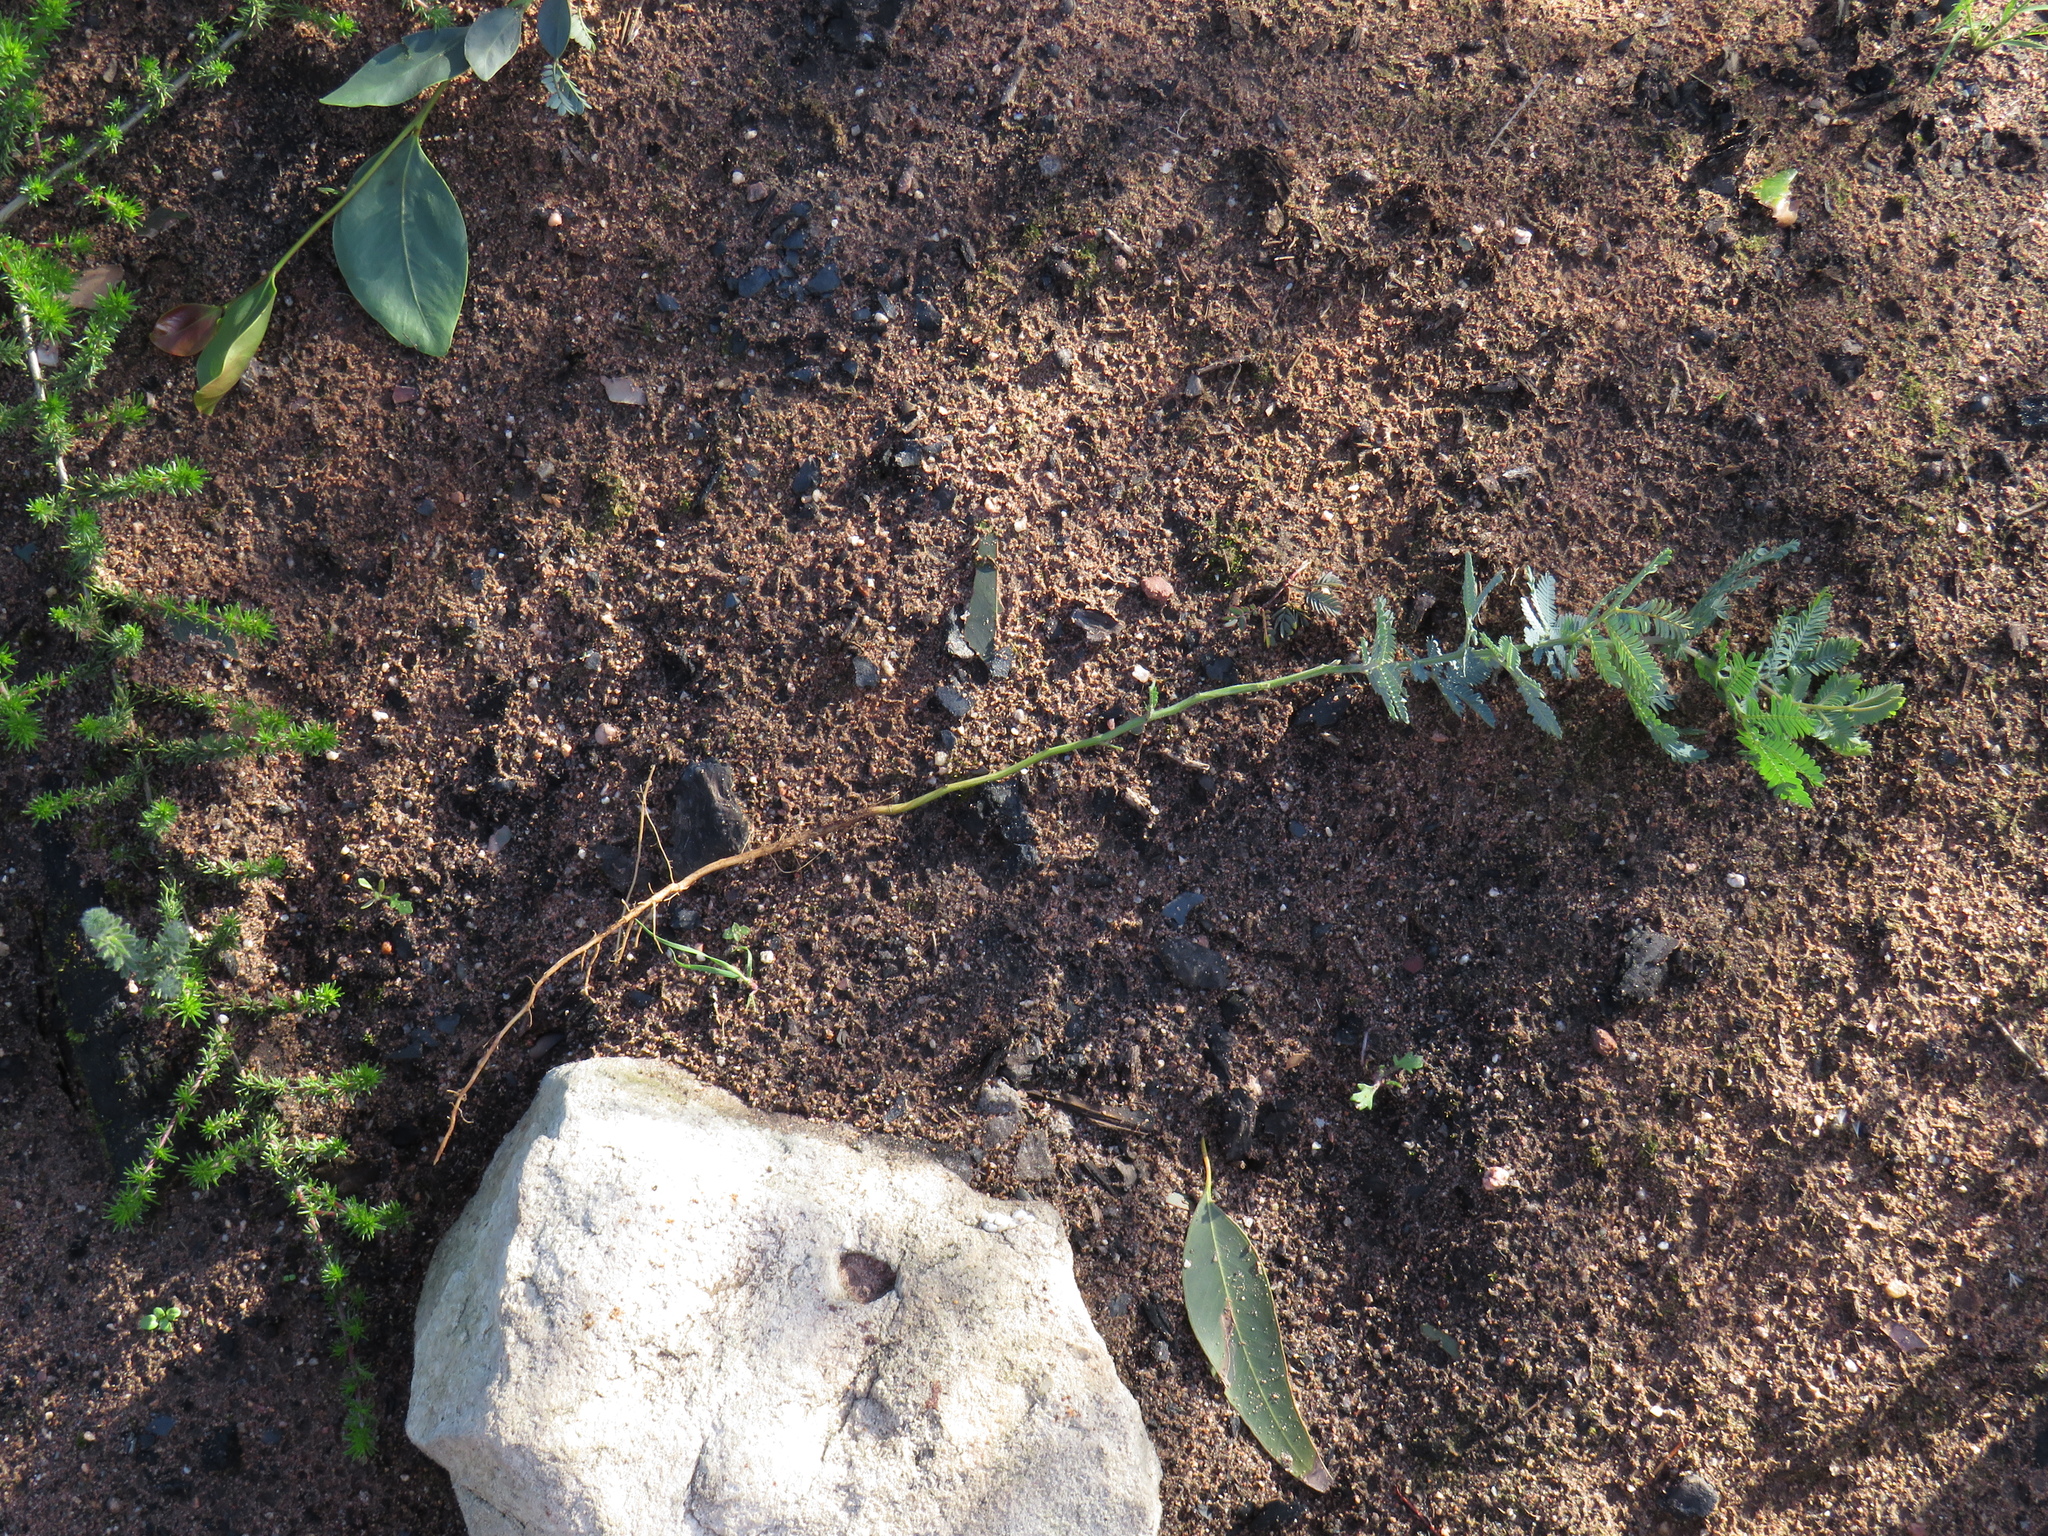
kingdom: Plantae
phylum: Tracheophyta
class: Magnoliopsida
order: Fabales
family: Fabaceae
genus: Acacia
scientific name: Acacia baileyana
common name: Cootamundra wattle
